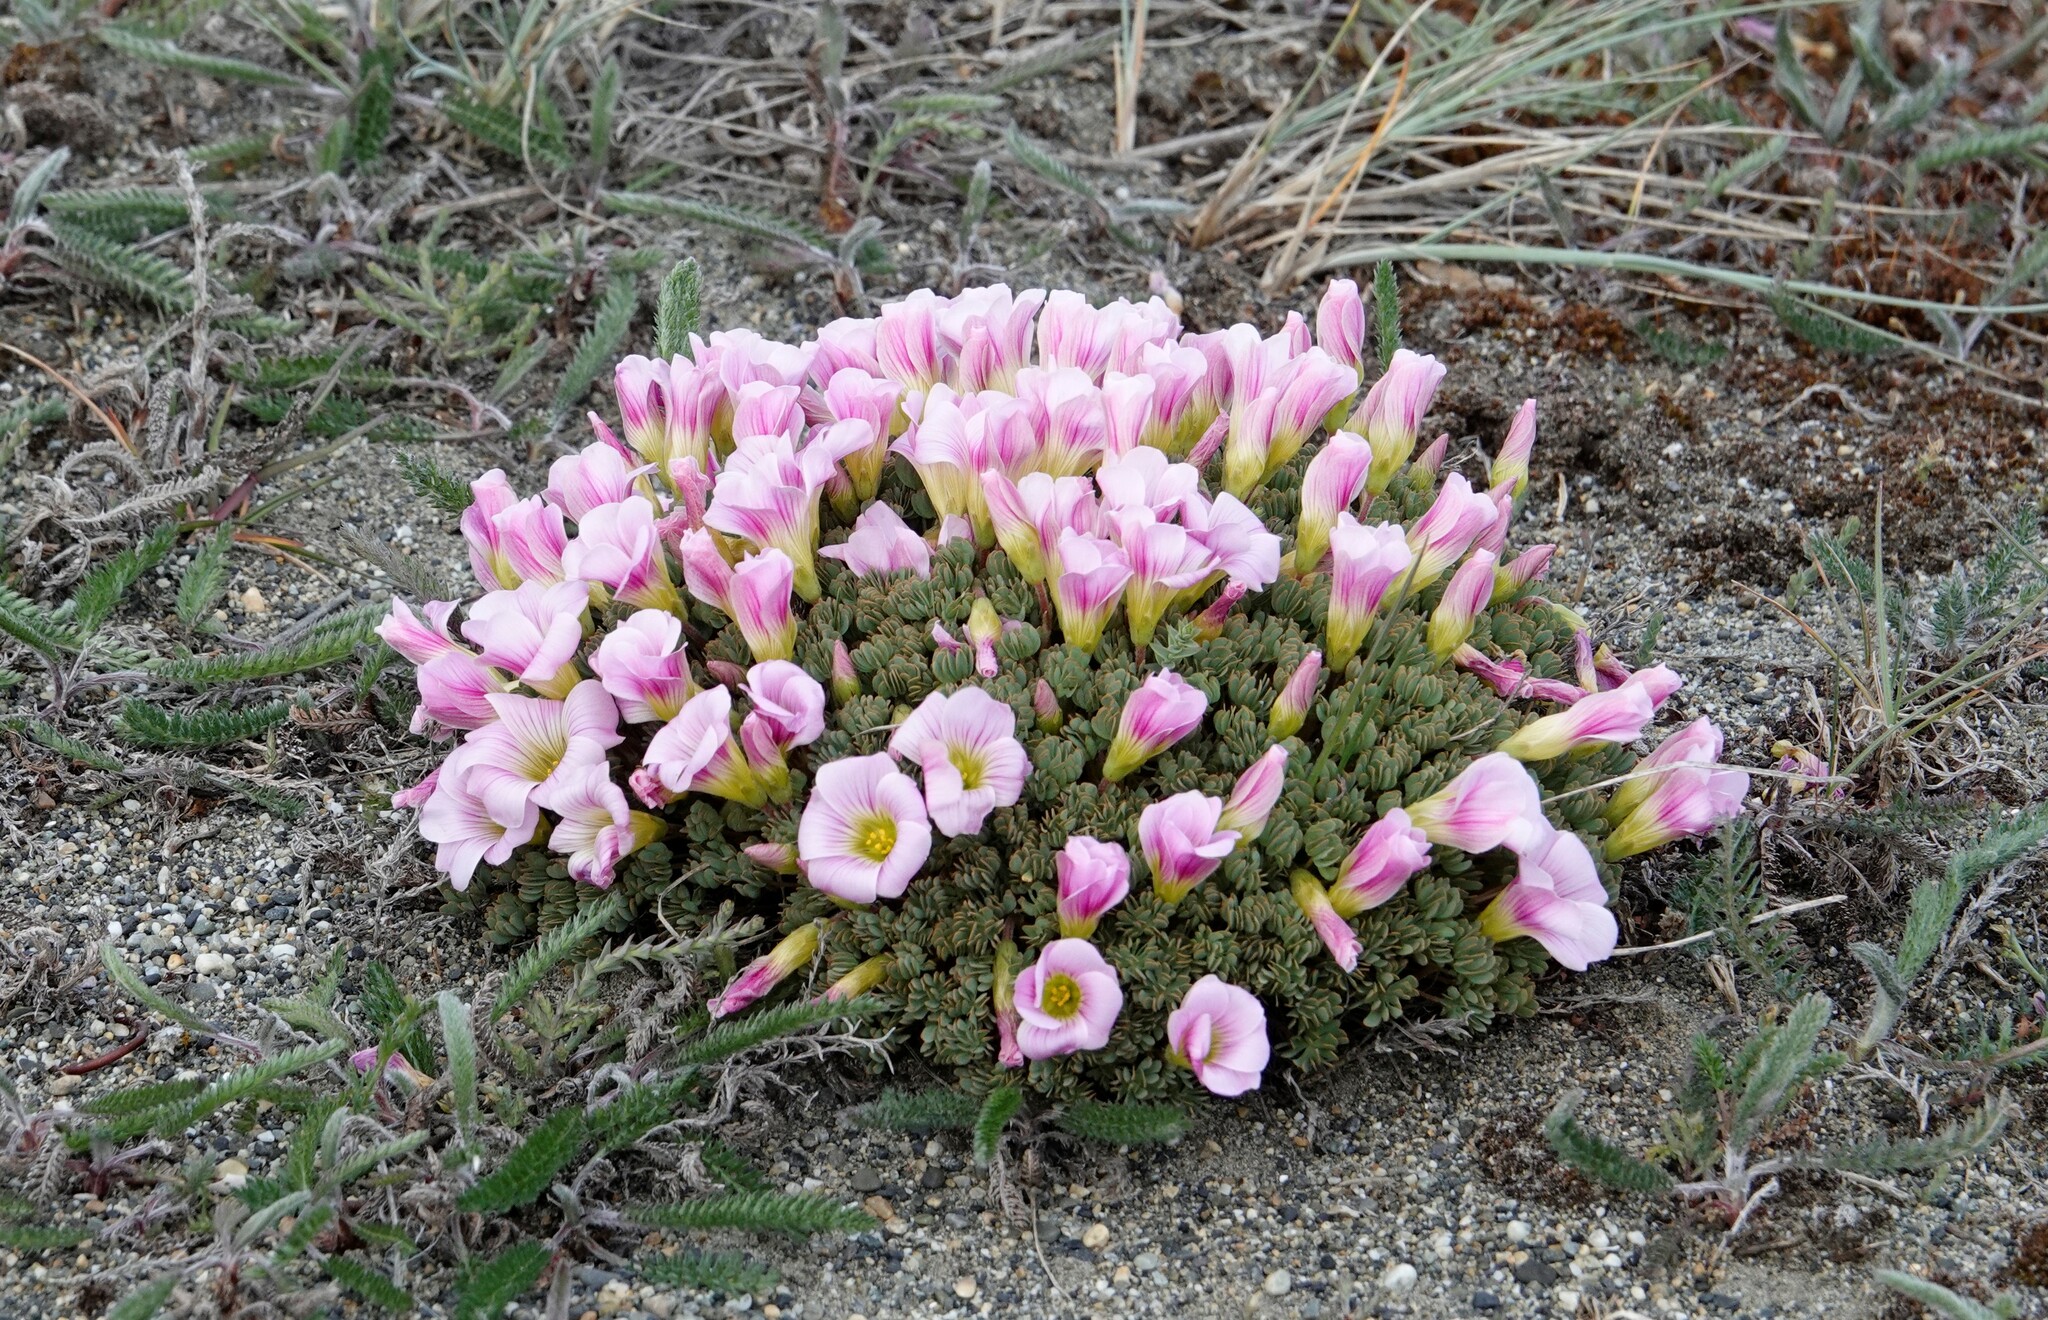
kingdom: Plantae
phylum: Tracheophyta
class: Magnoliopsida
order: Oxalidales
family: Oxalidaceae
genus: Oxalis
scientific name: Oxalis enneaphylla
